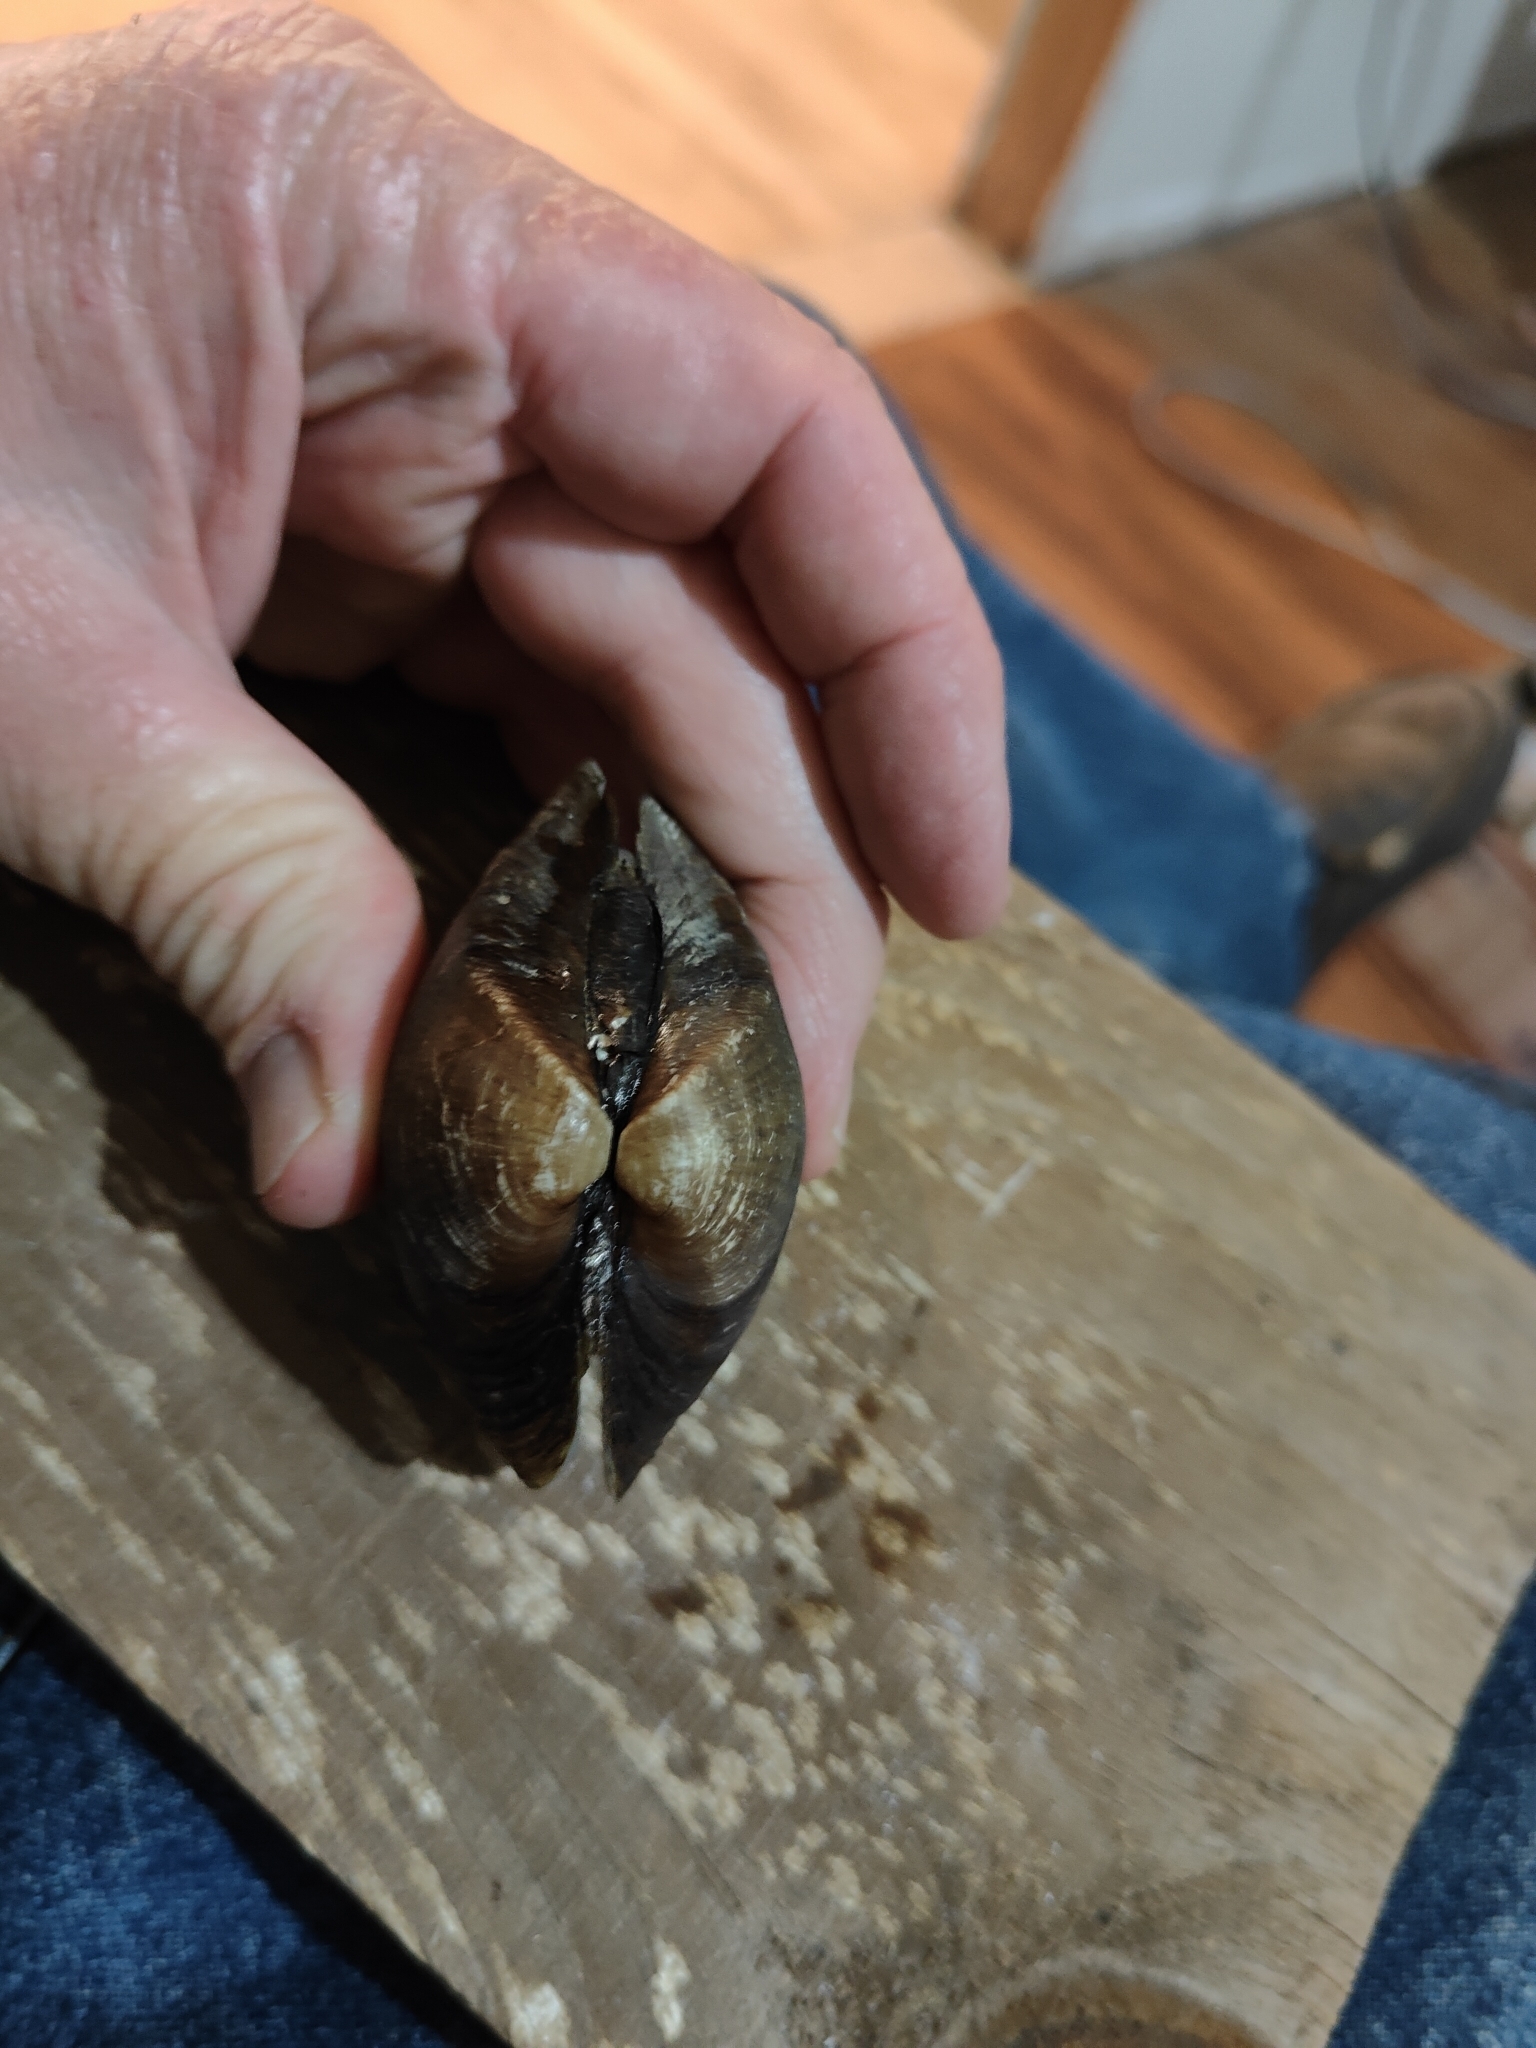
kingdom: Animalia
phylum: Mollusca
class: Bivalvia
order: Unionida
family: Unionidae
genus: Truncilla
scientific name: Truncilla truncata
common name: Deertoe
